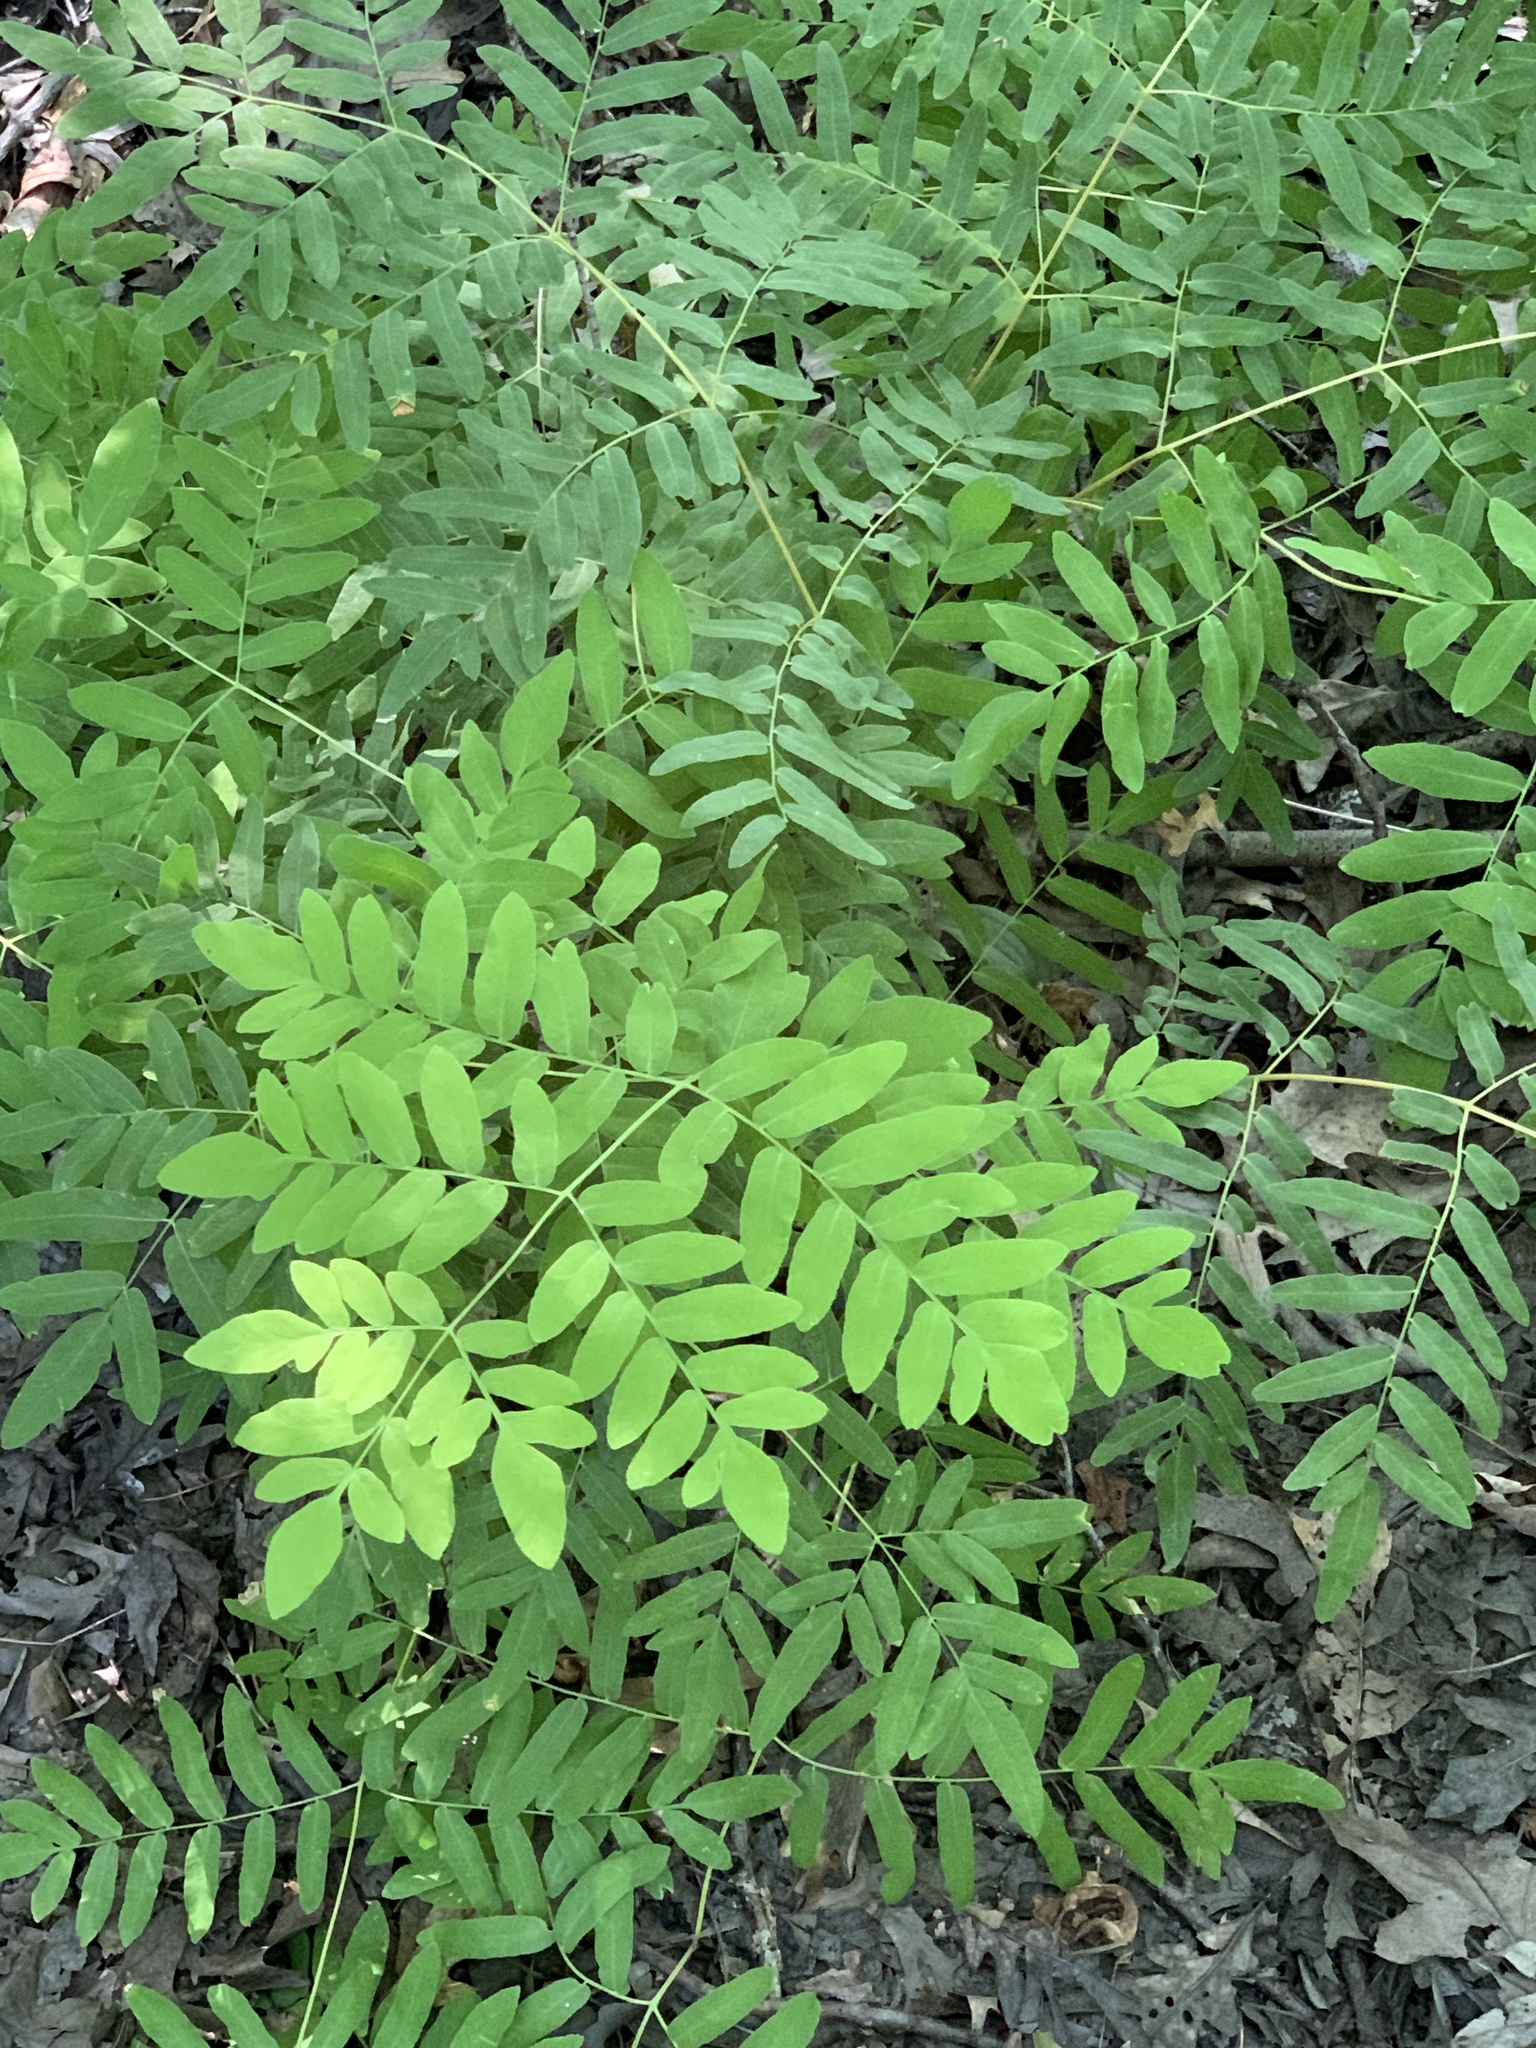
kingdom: Plantae
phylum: Tracheophyta
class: Polypodiopsida
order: Osmundales
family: Osmundaceae
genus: Osmunda
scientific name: Osmunda spectabilis
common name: American royal fern
